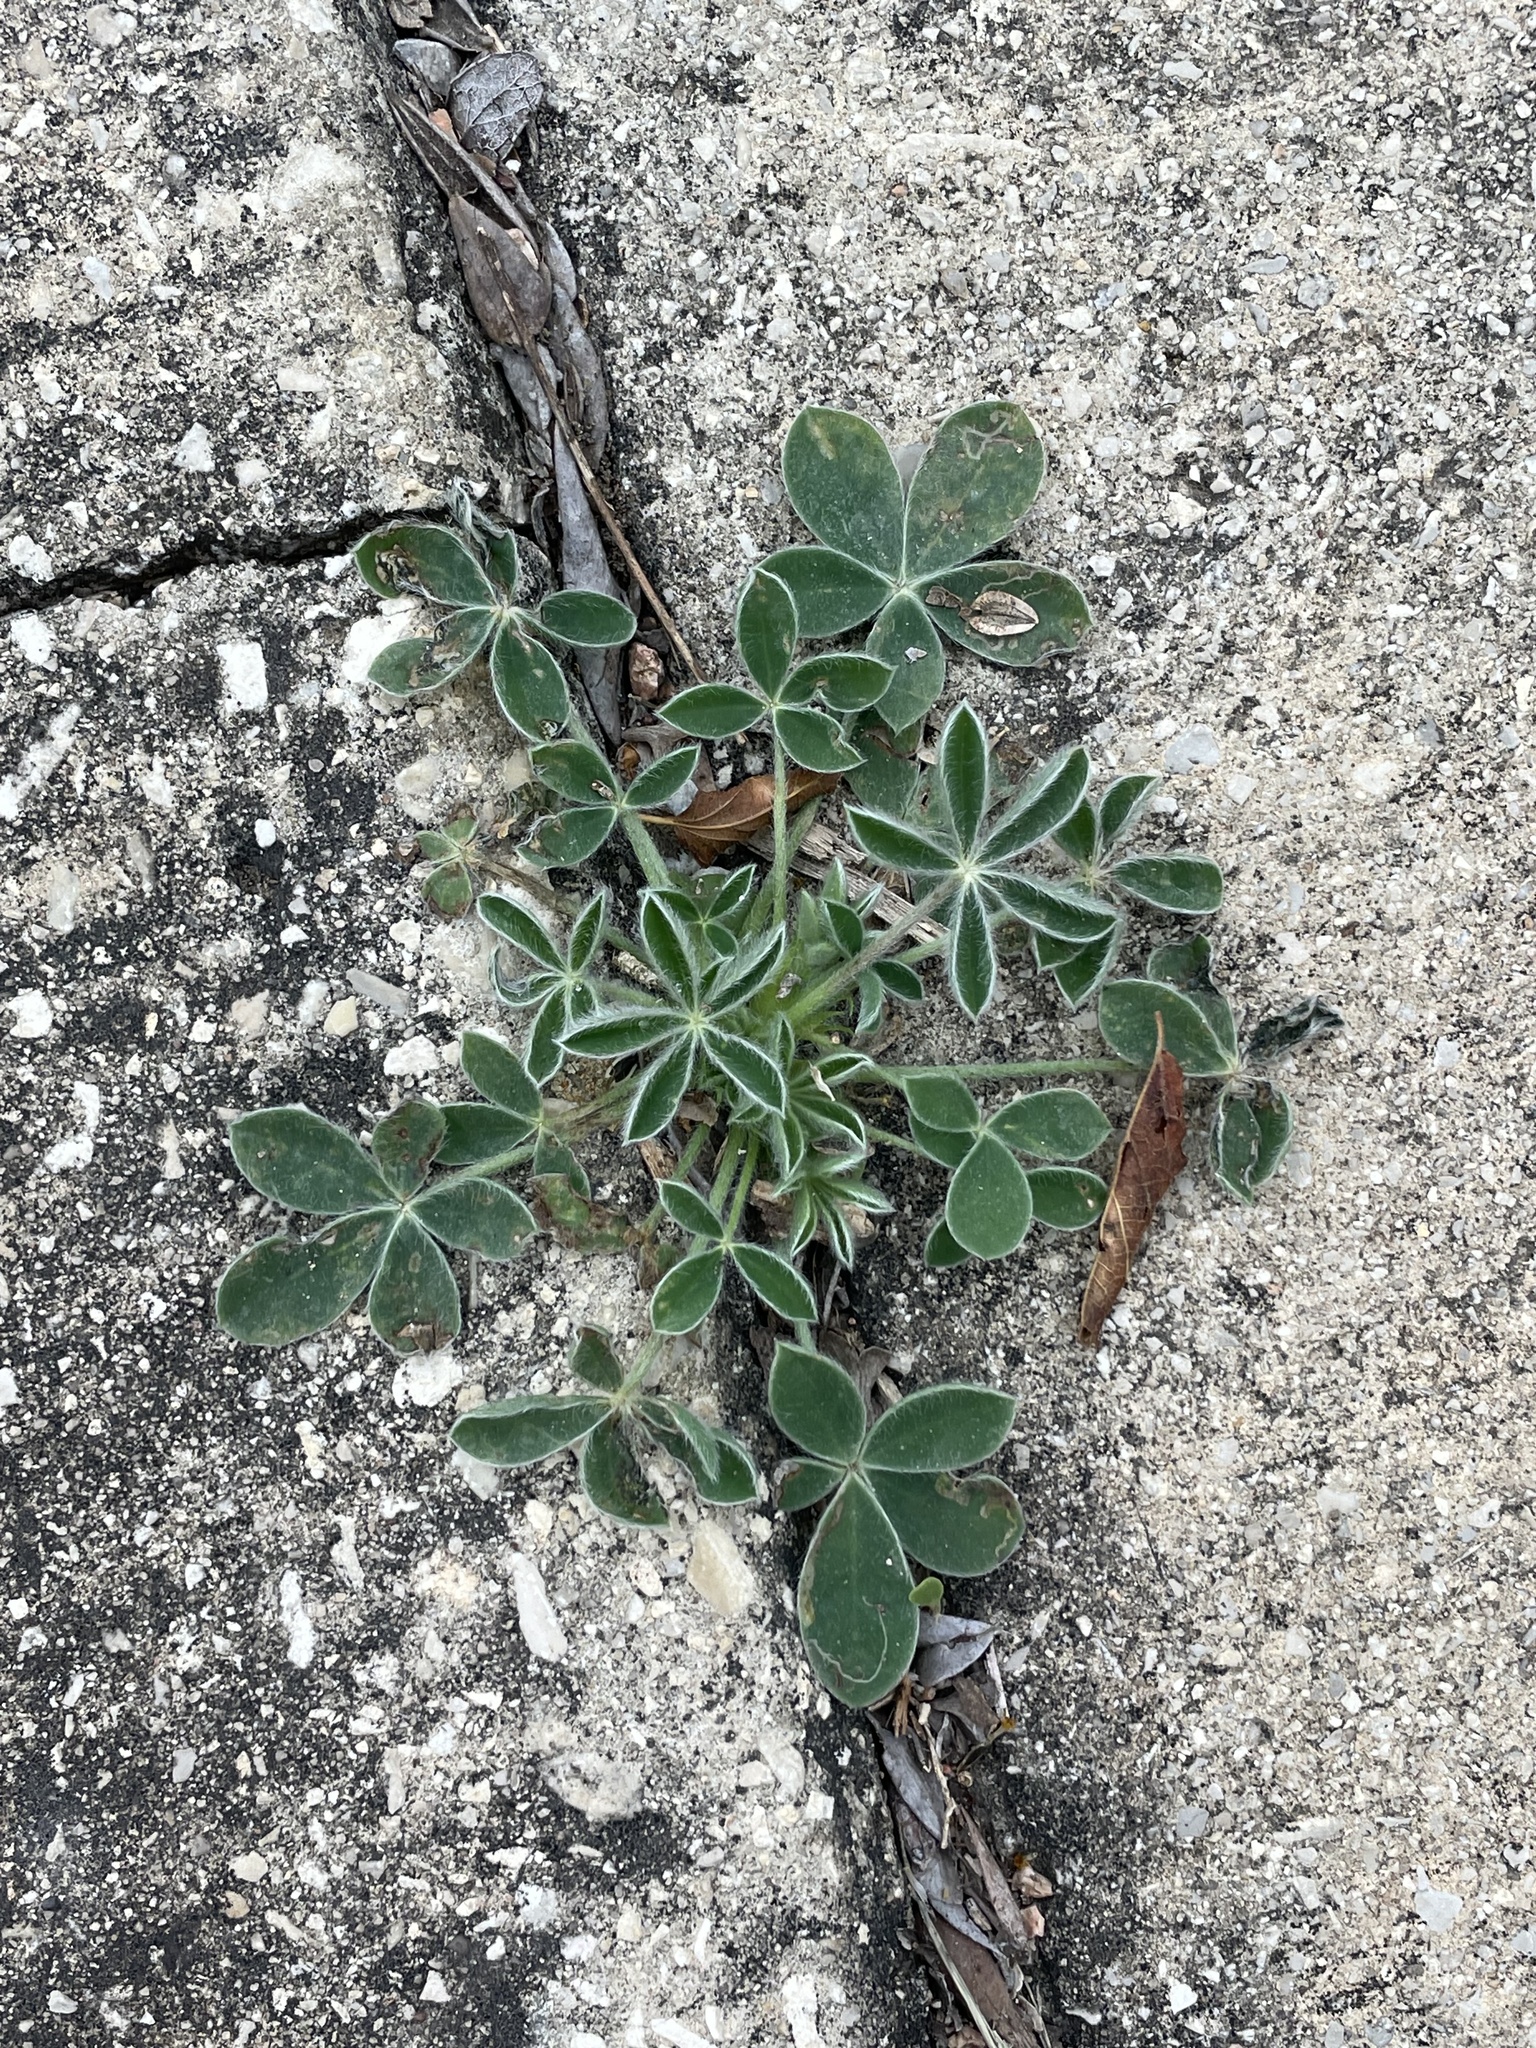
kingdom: Plantae
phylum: Tracheophyta
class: Magnoliopsida
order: Fabales
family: Fabaceae
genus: Lupinus
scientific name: Lupinus texensis
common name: Texas bluebonnet
